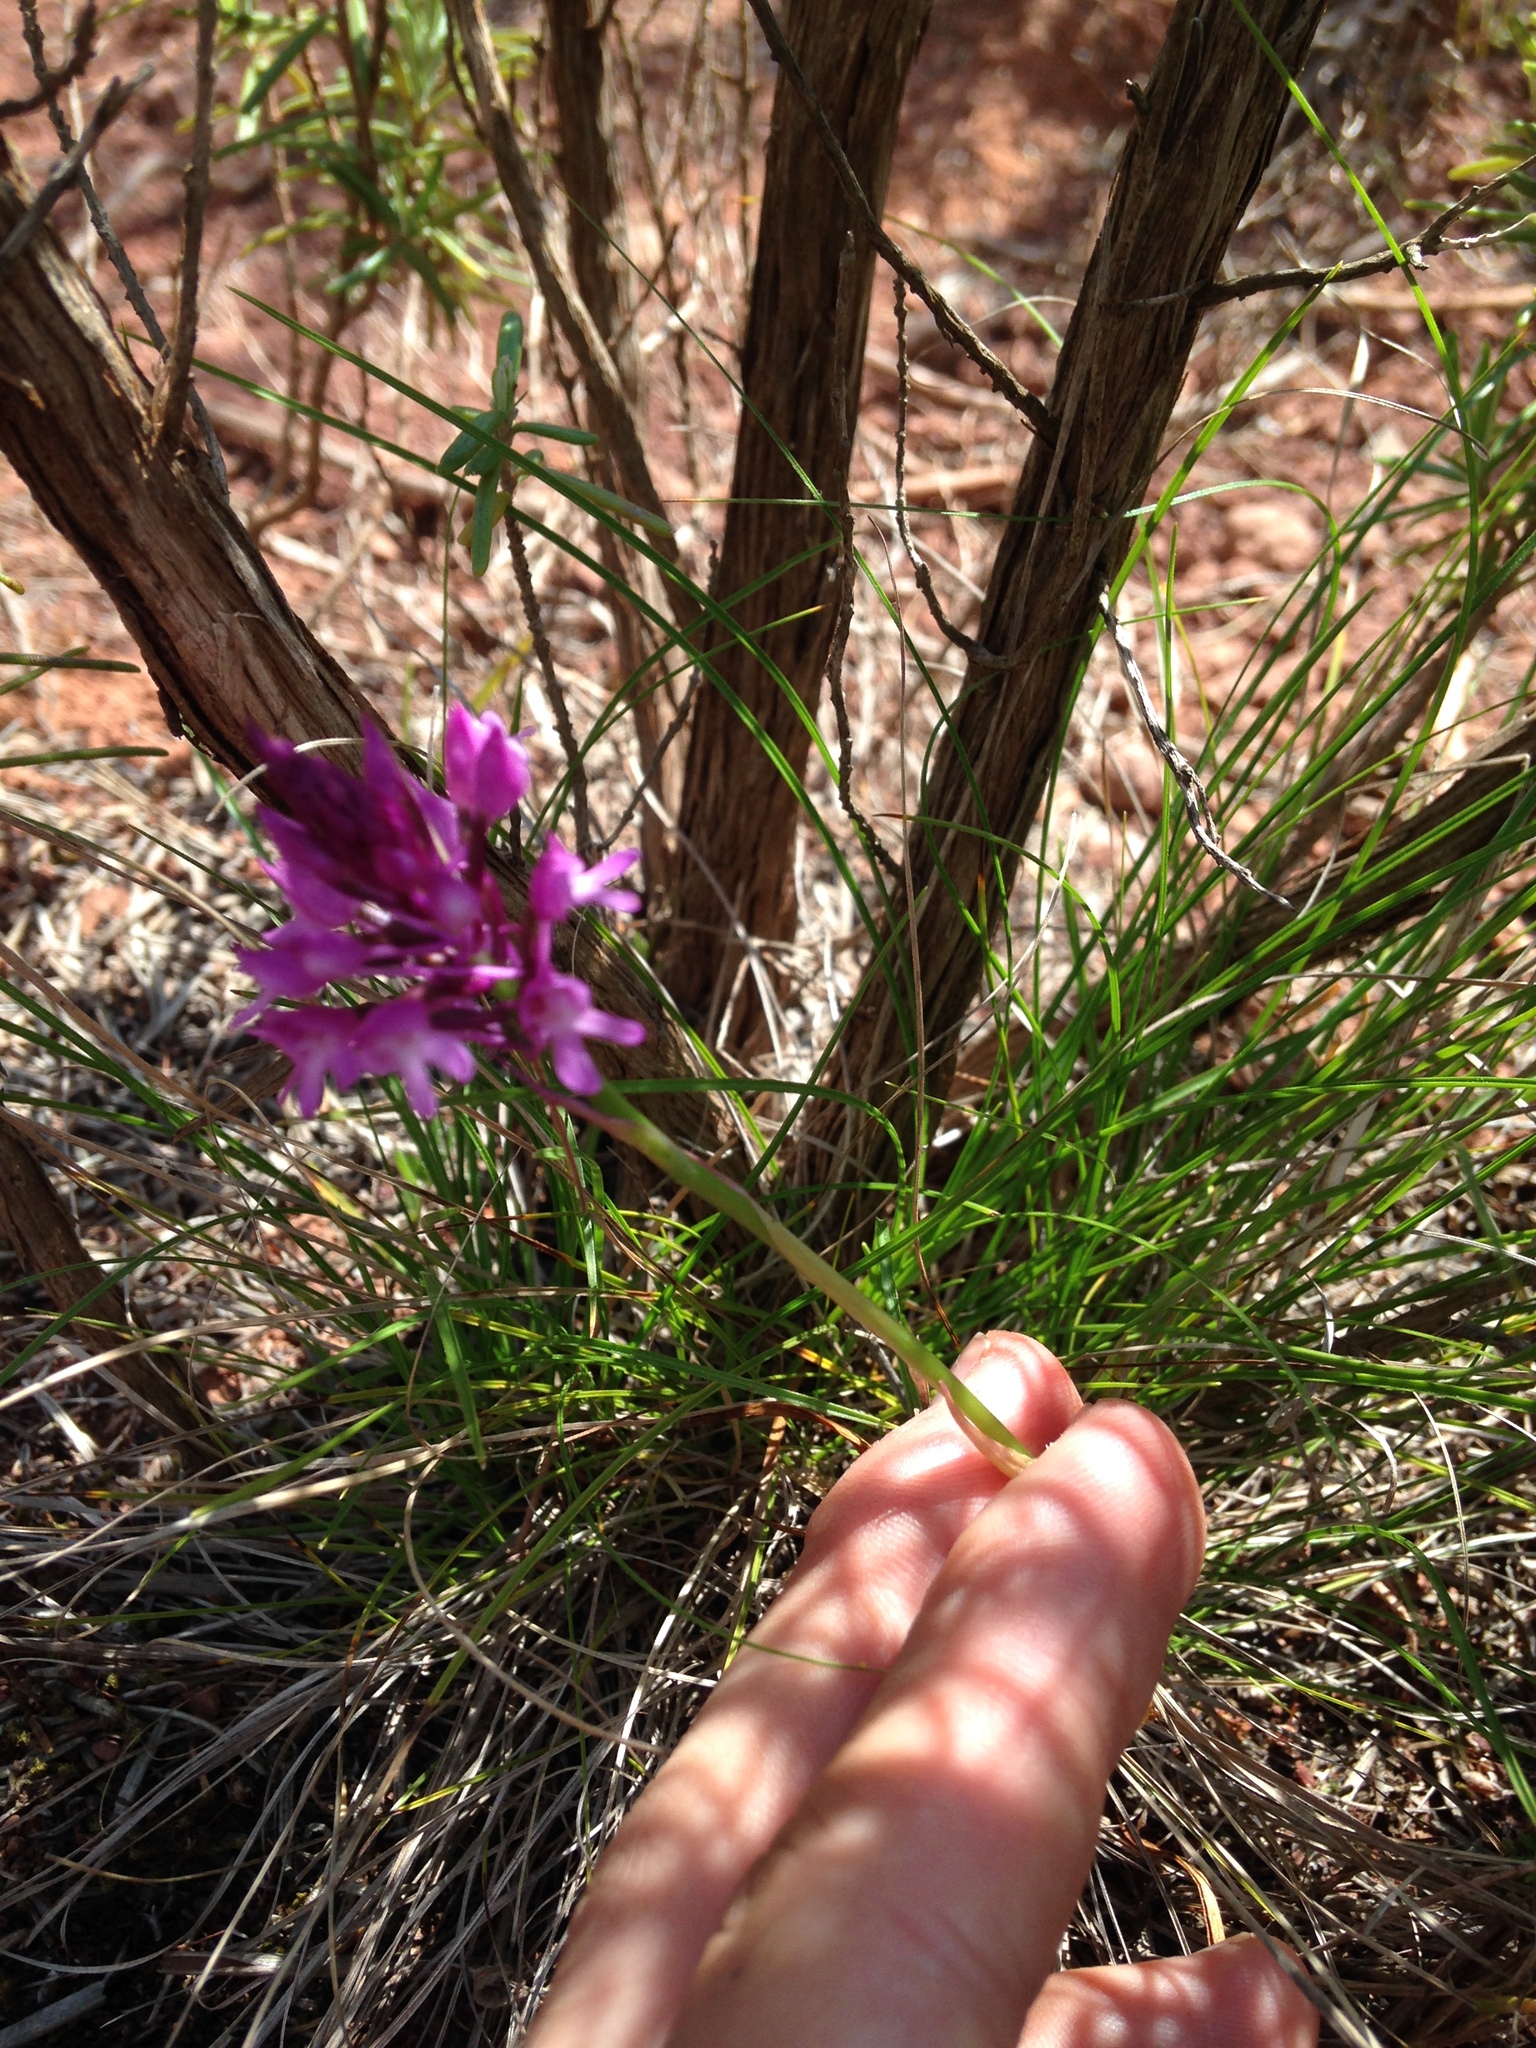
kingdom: Plantae
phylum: Tracheophyta
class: Liliopsida
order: Asparagales
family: Orchidaceae
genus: Anacamptis
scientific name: Anacamptis pyramidalis
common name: Pyramidal orchid
